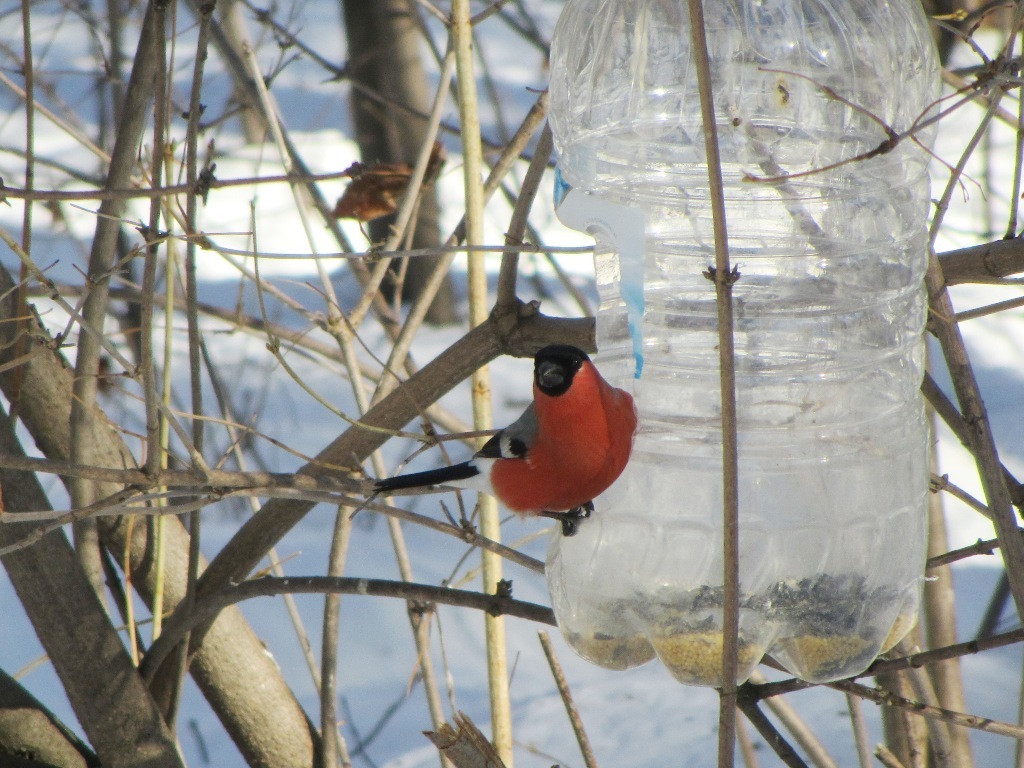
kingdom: Animalia
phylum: Chordata
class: Aves
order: Passeriformes
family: Fringillidae
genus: Pyrrhula
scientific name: Pyrrhula pyrrhula
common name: Eurasian bullfinch
